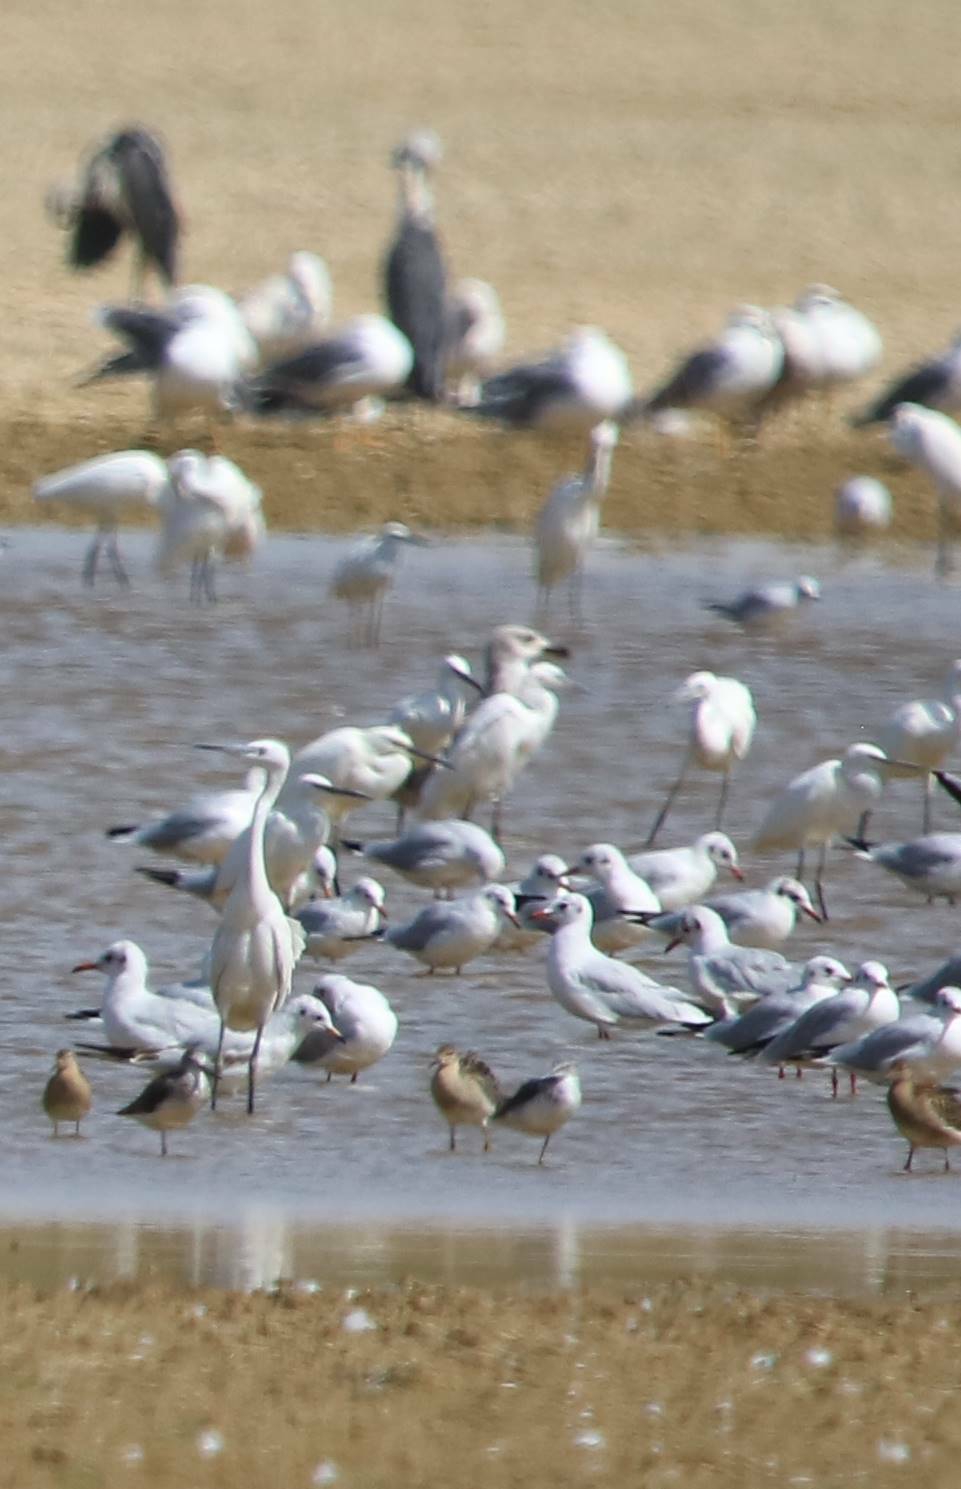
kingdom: Animalia
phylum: Chordata
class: Aves
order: Pelecaniformes
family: Ardeidae
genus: Egretta
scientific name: Egretta garzetta
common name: Little egret
